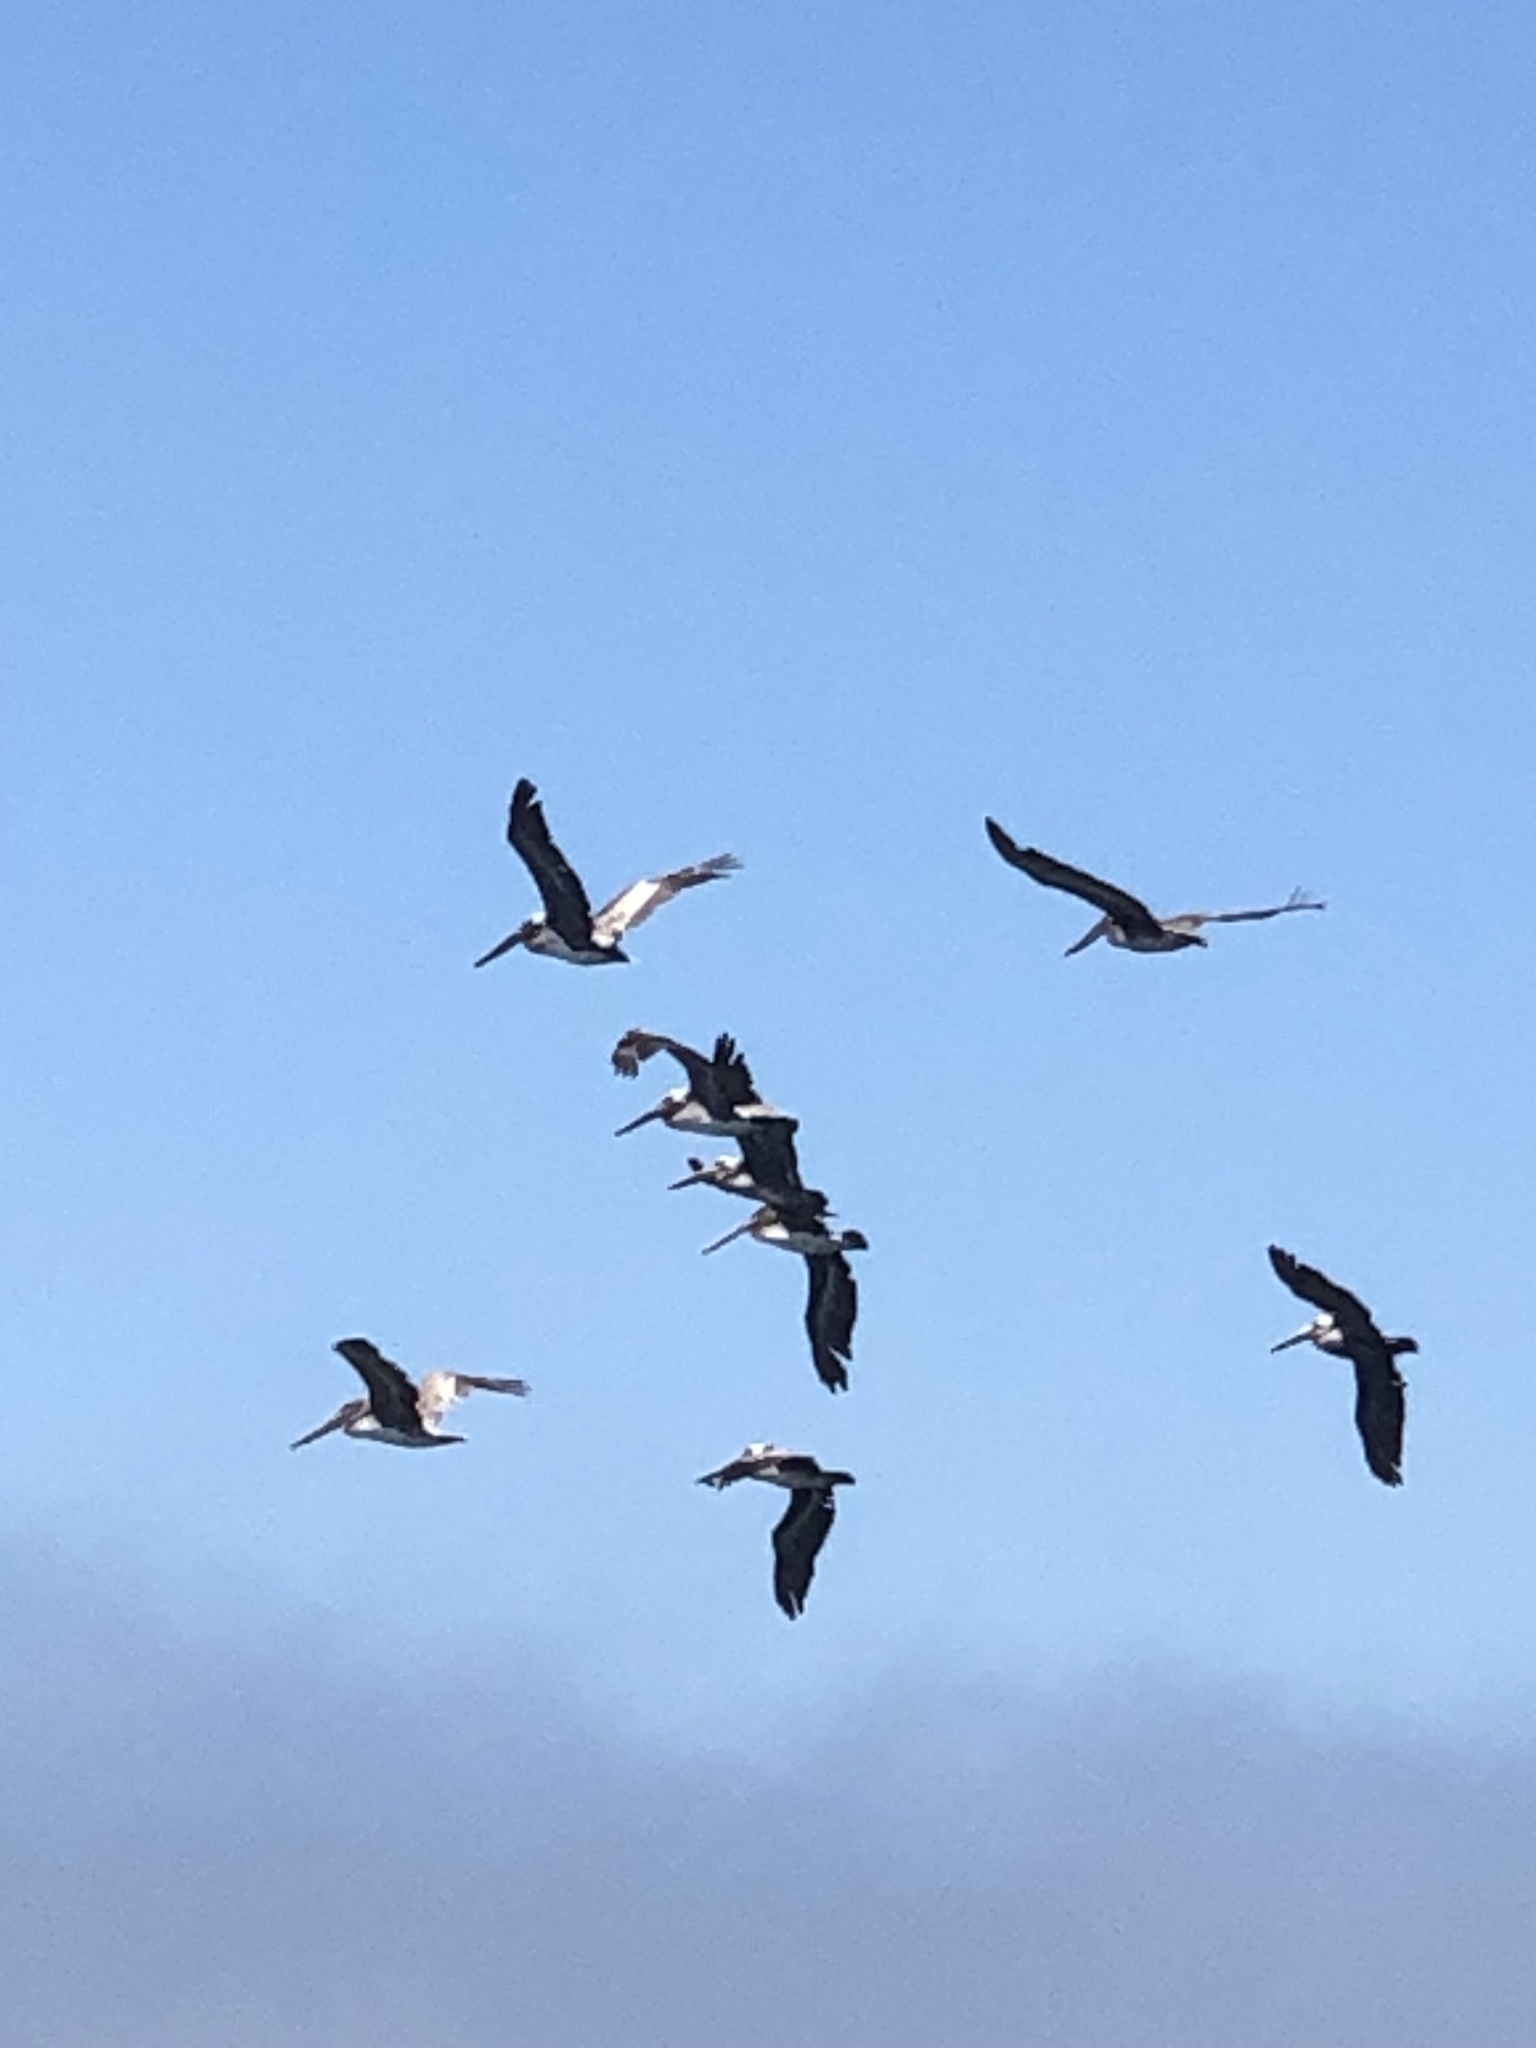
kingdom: Animalia
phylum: Chordata
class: Aves
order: Pelecaniformes
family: Pelecanidae
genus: Pelecanus
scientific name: Pelecanus occidentalis
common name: Brown pelican
